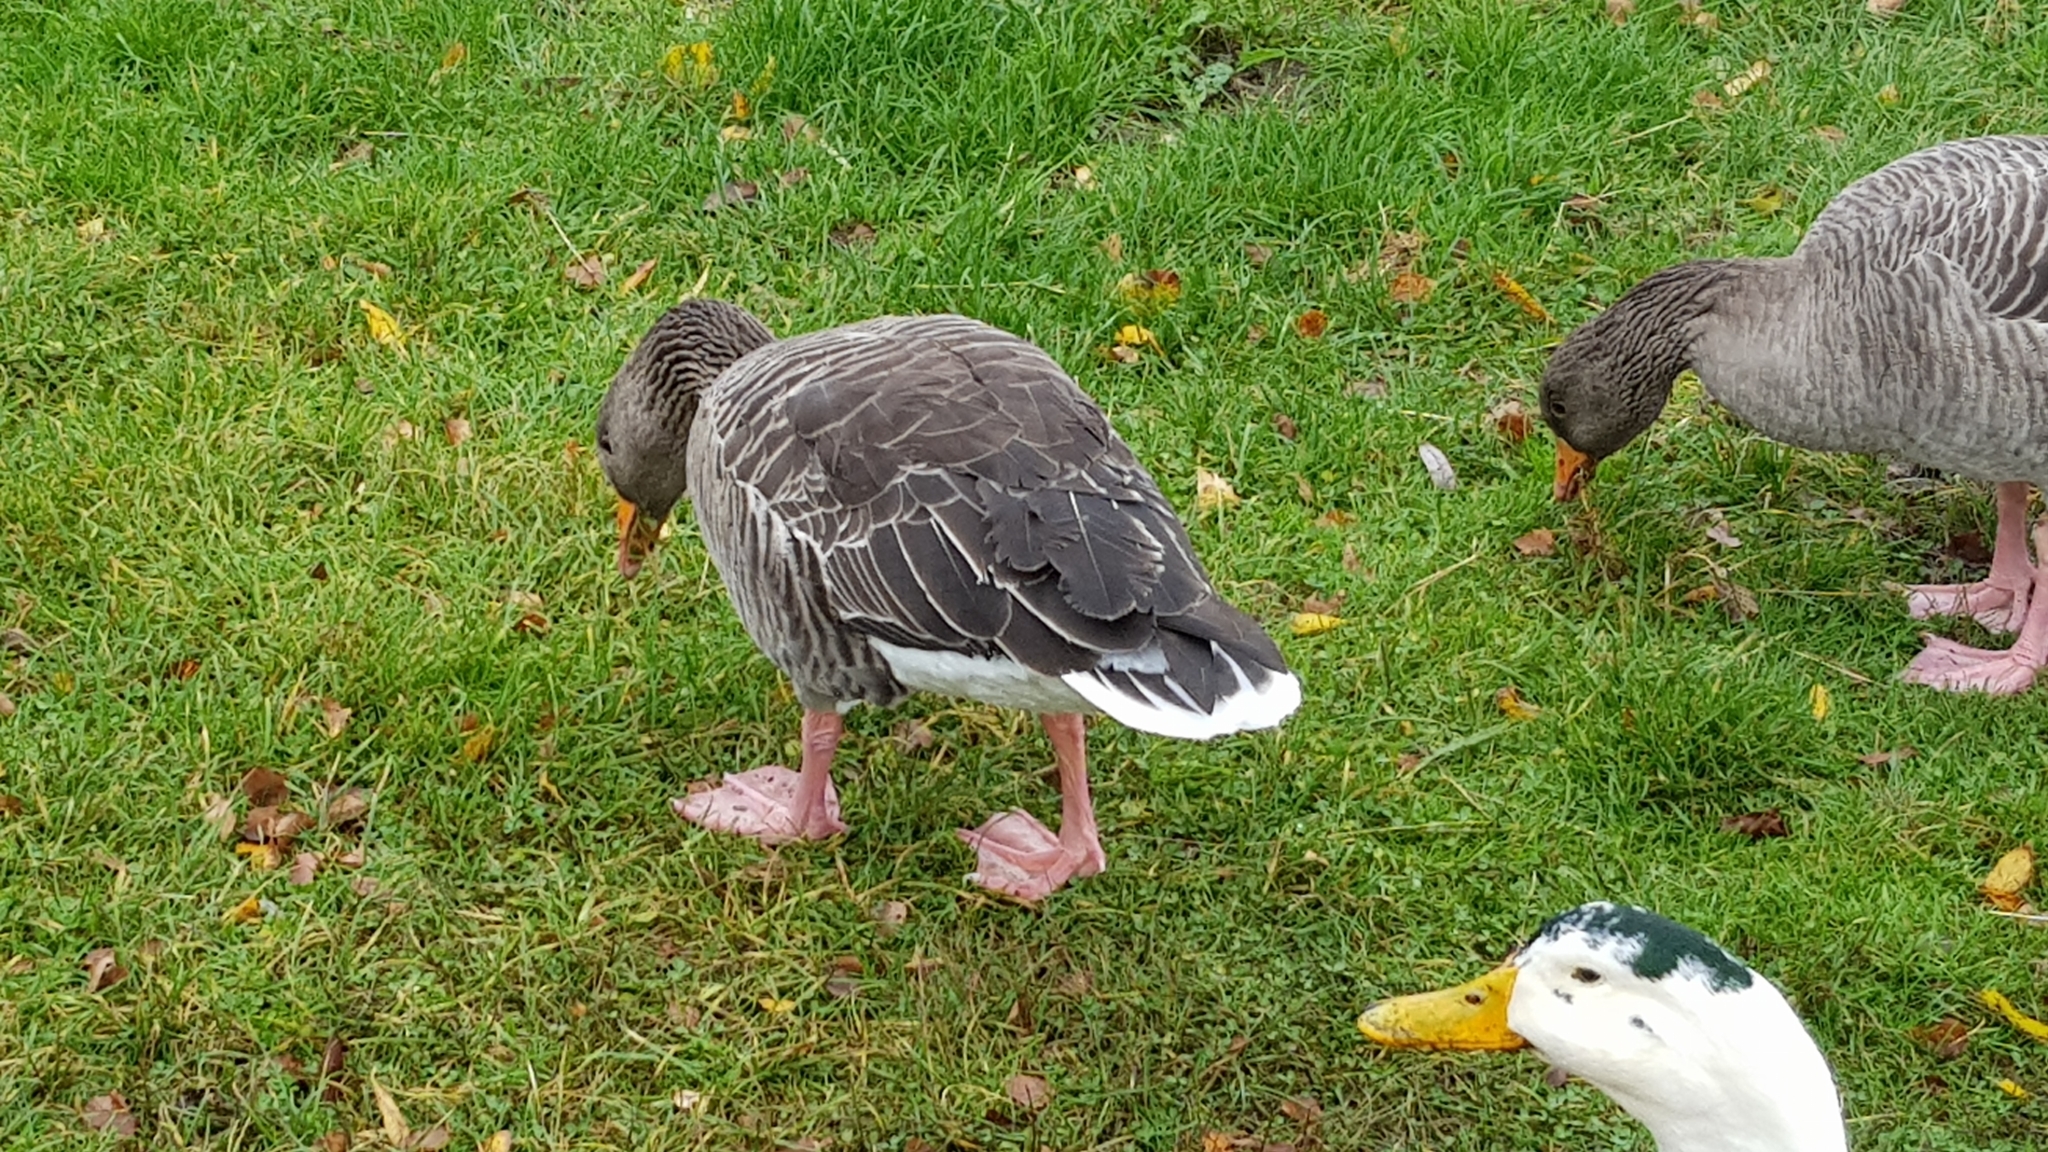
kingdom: Animalia
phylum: Chordata
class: Aves
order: Anseriformes
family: Anatidae
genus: Anser
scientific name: Anser anser
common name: Greylag goose
